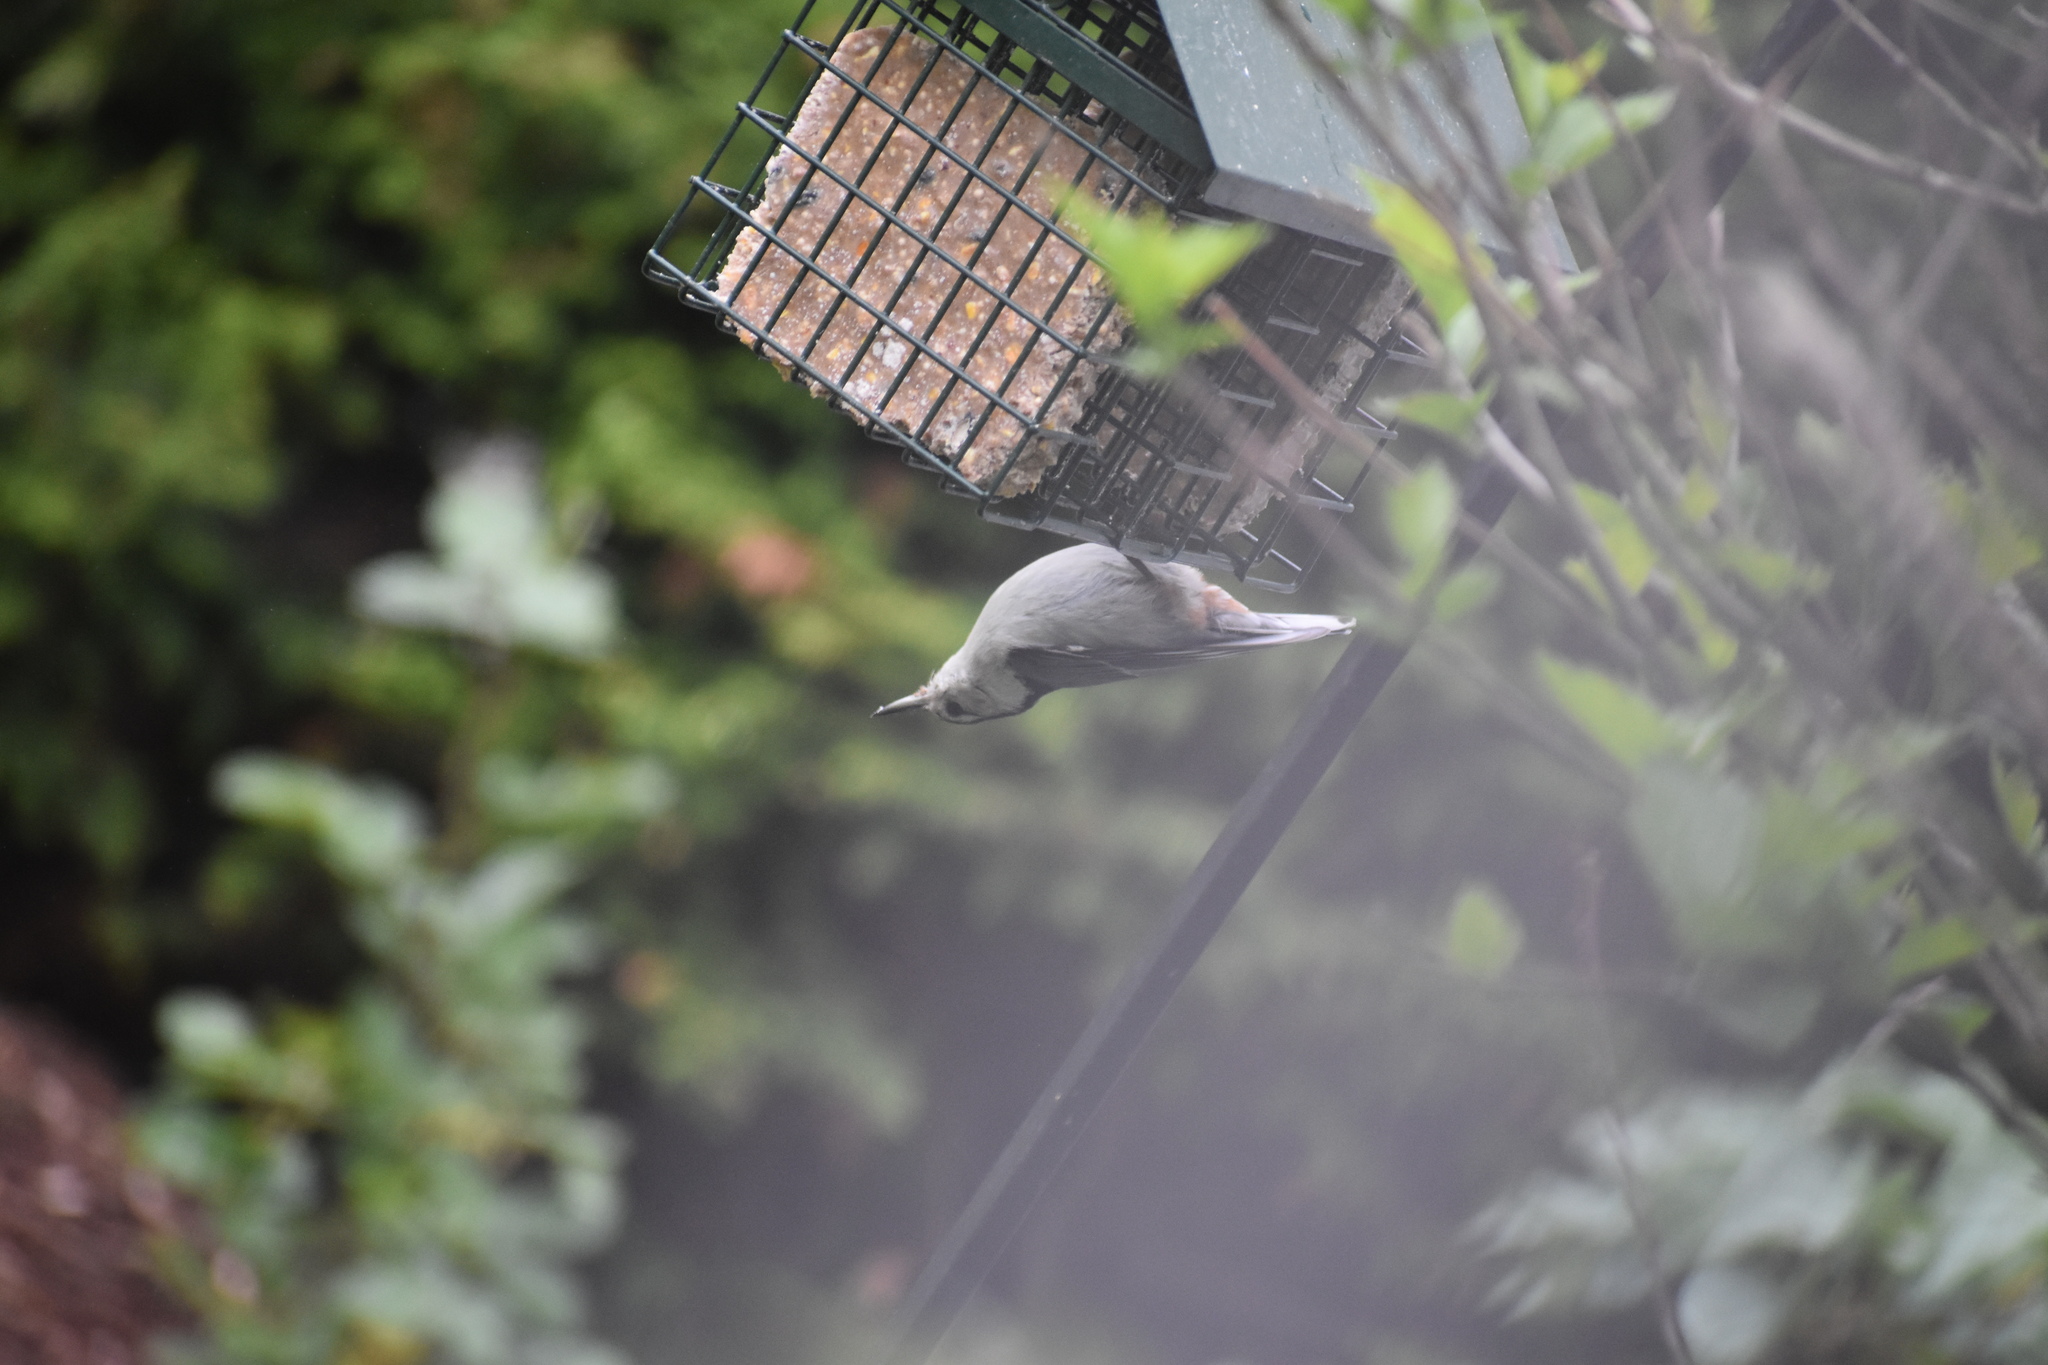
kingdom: Animalia
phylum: Chordata
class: Aves
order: Passeriformes
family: Sittidae
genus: Sitta
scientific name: Sitta carolinensis
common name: White-breasted nuthatch
